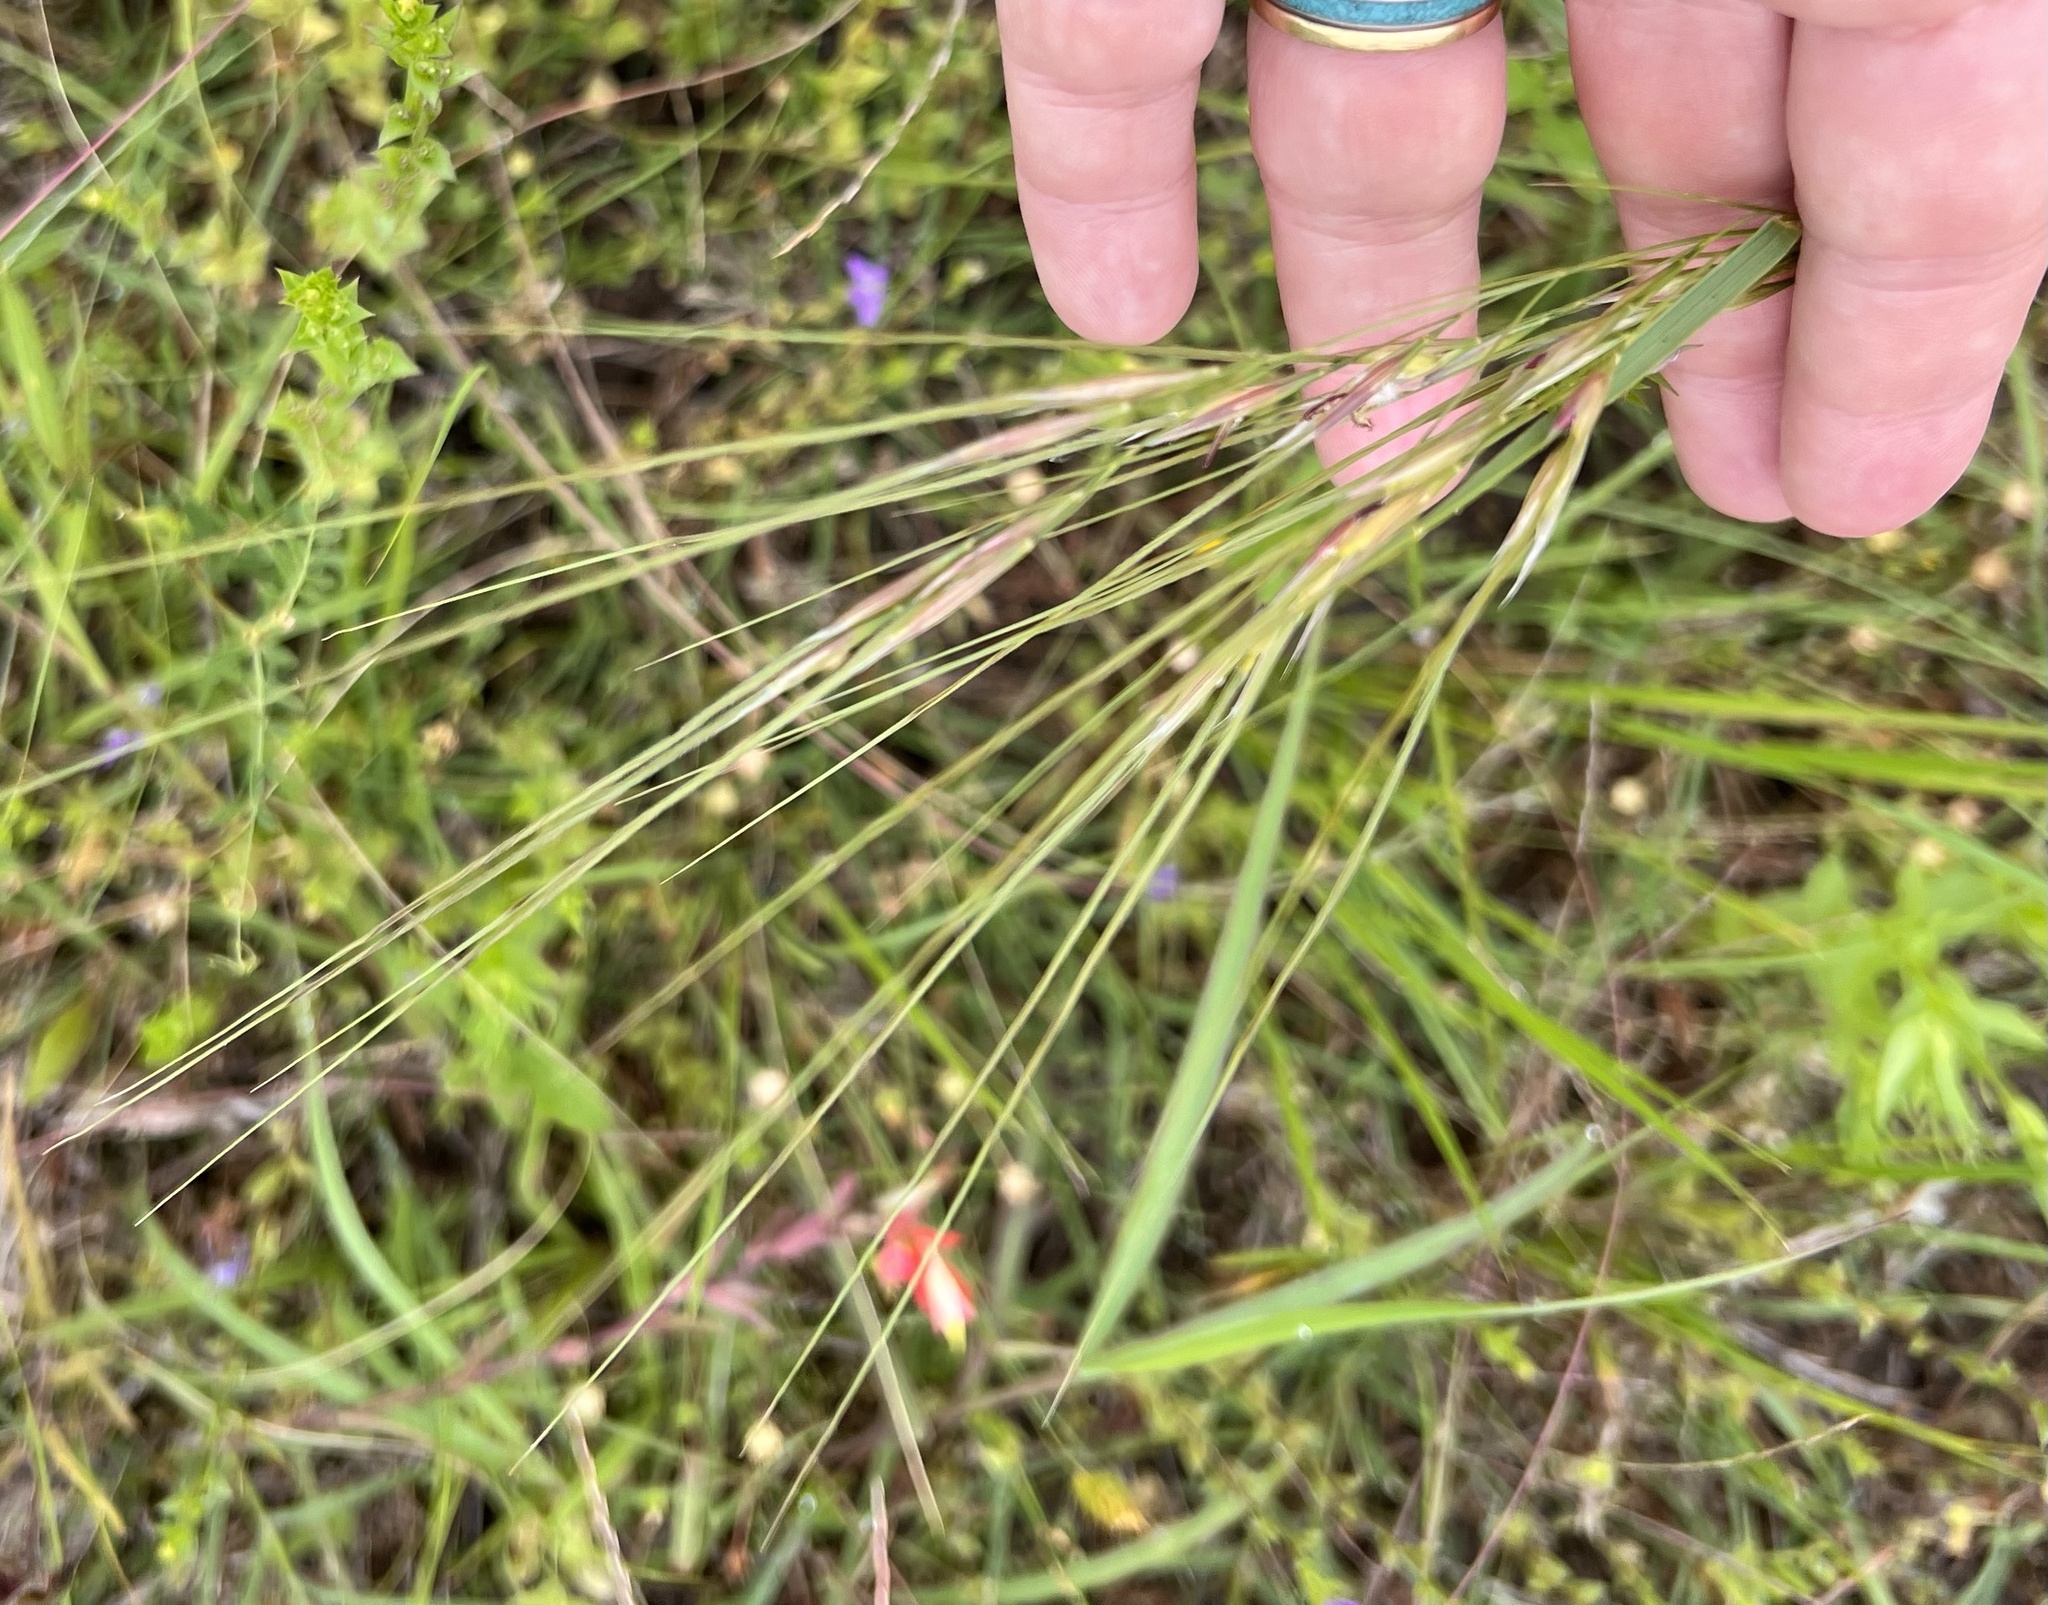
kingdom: Plantae
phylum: Tracheophyta
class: Liliopsida
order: Poales
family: Poaceae
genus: Nassella
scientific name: Nassella leucotricha
